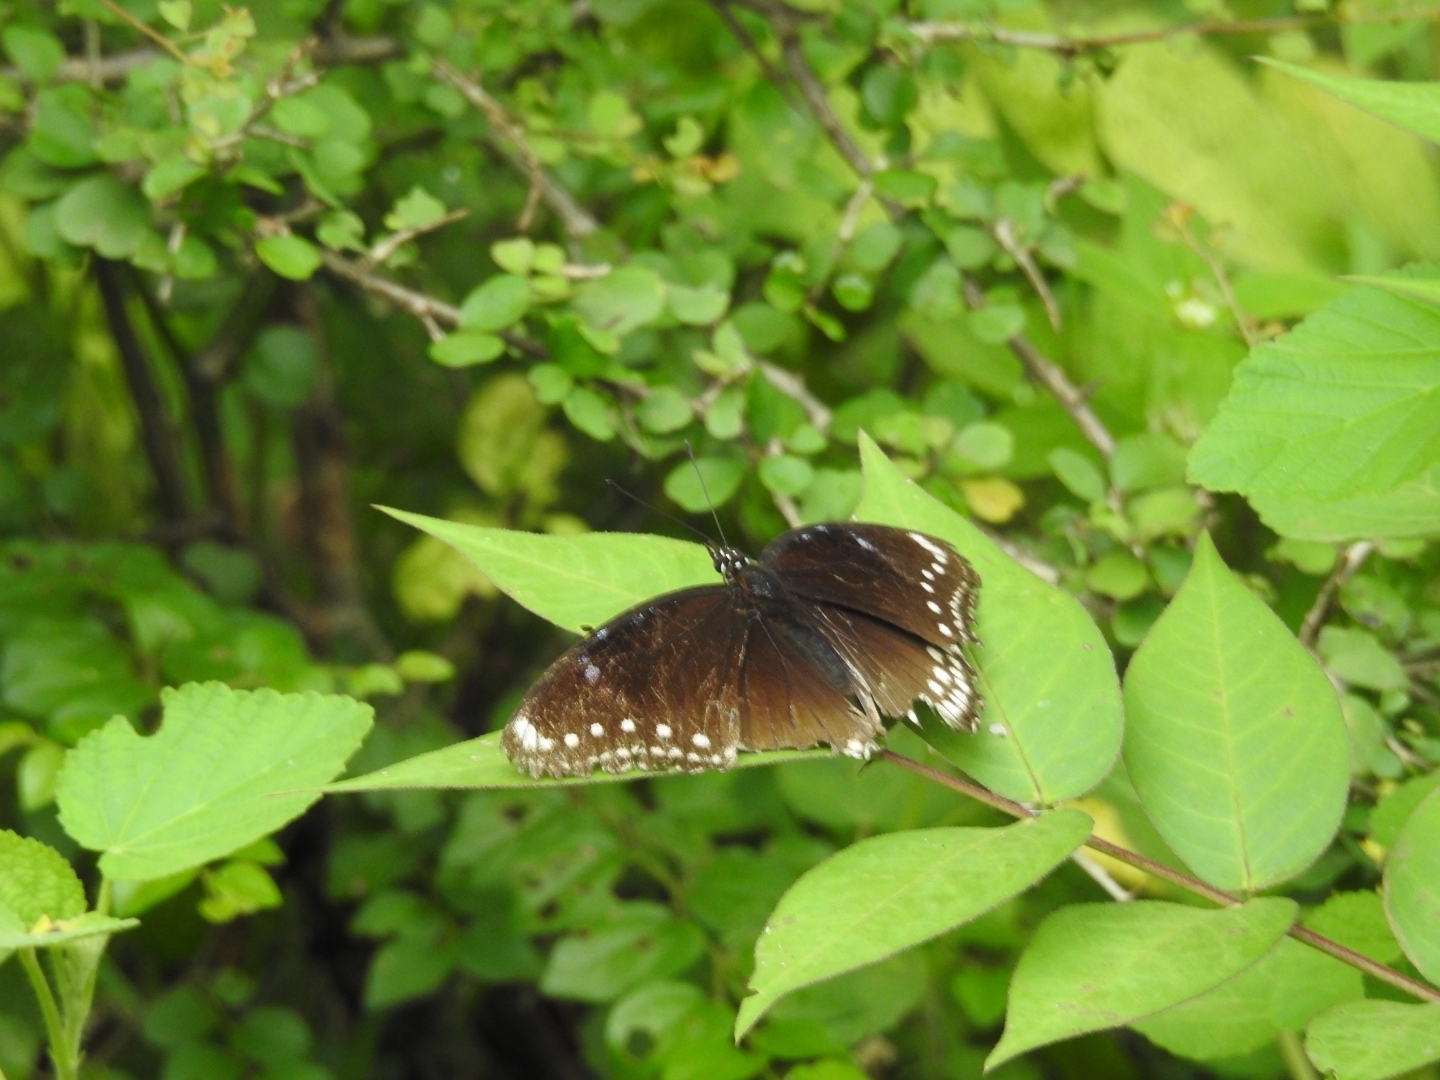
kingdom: Animalia
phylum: Arthropoda
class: Insecta
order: Lepidoptera
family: Nymphalidae
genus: Hypolimnas
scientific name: Hypolimnas bolina
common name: Great eggfly
